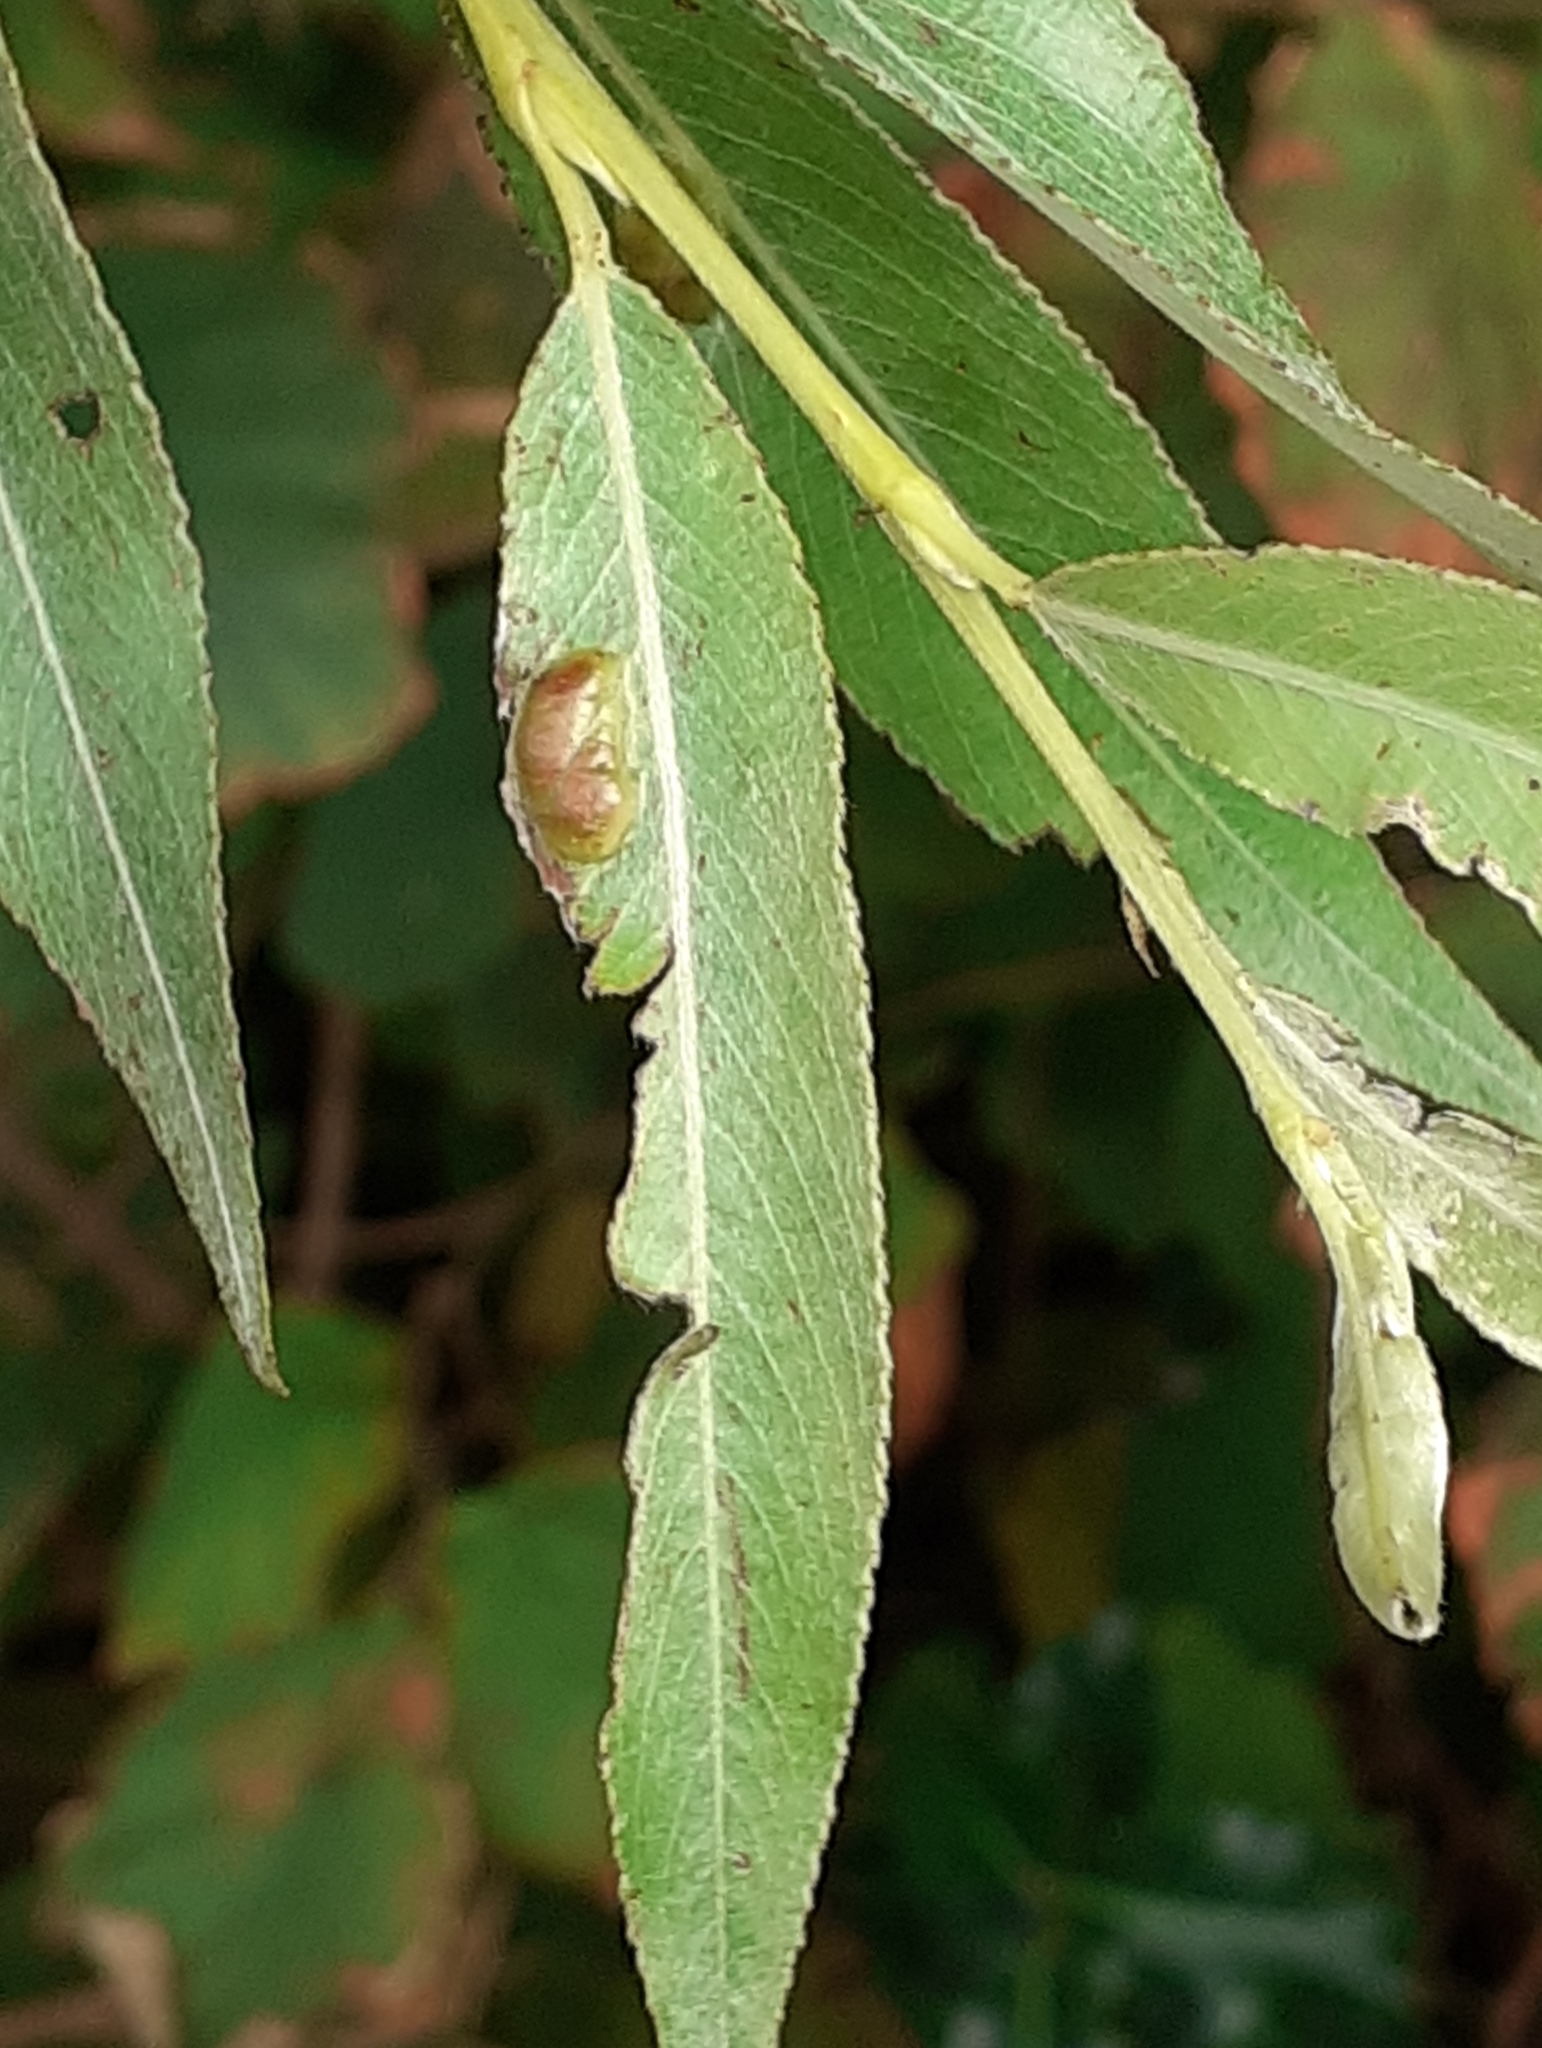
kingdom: Animalia
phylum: Arthropoda
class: Insecta
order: Hymenoptera
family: Tenthredinidae
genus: Pontania
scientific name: Pontania proxima
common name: Common sawfly
